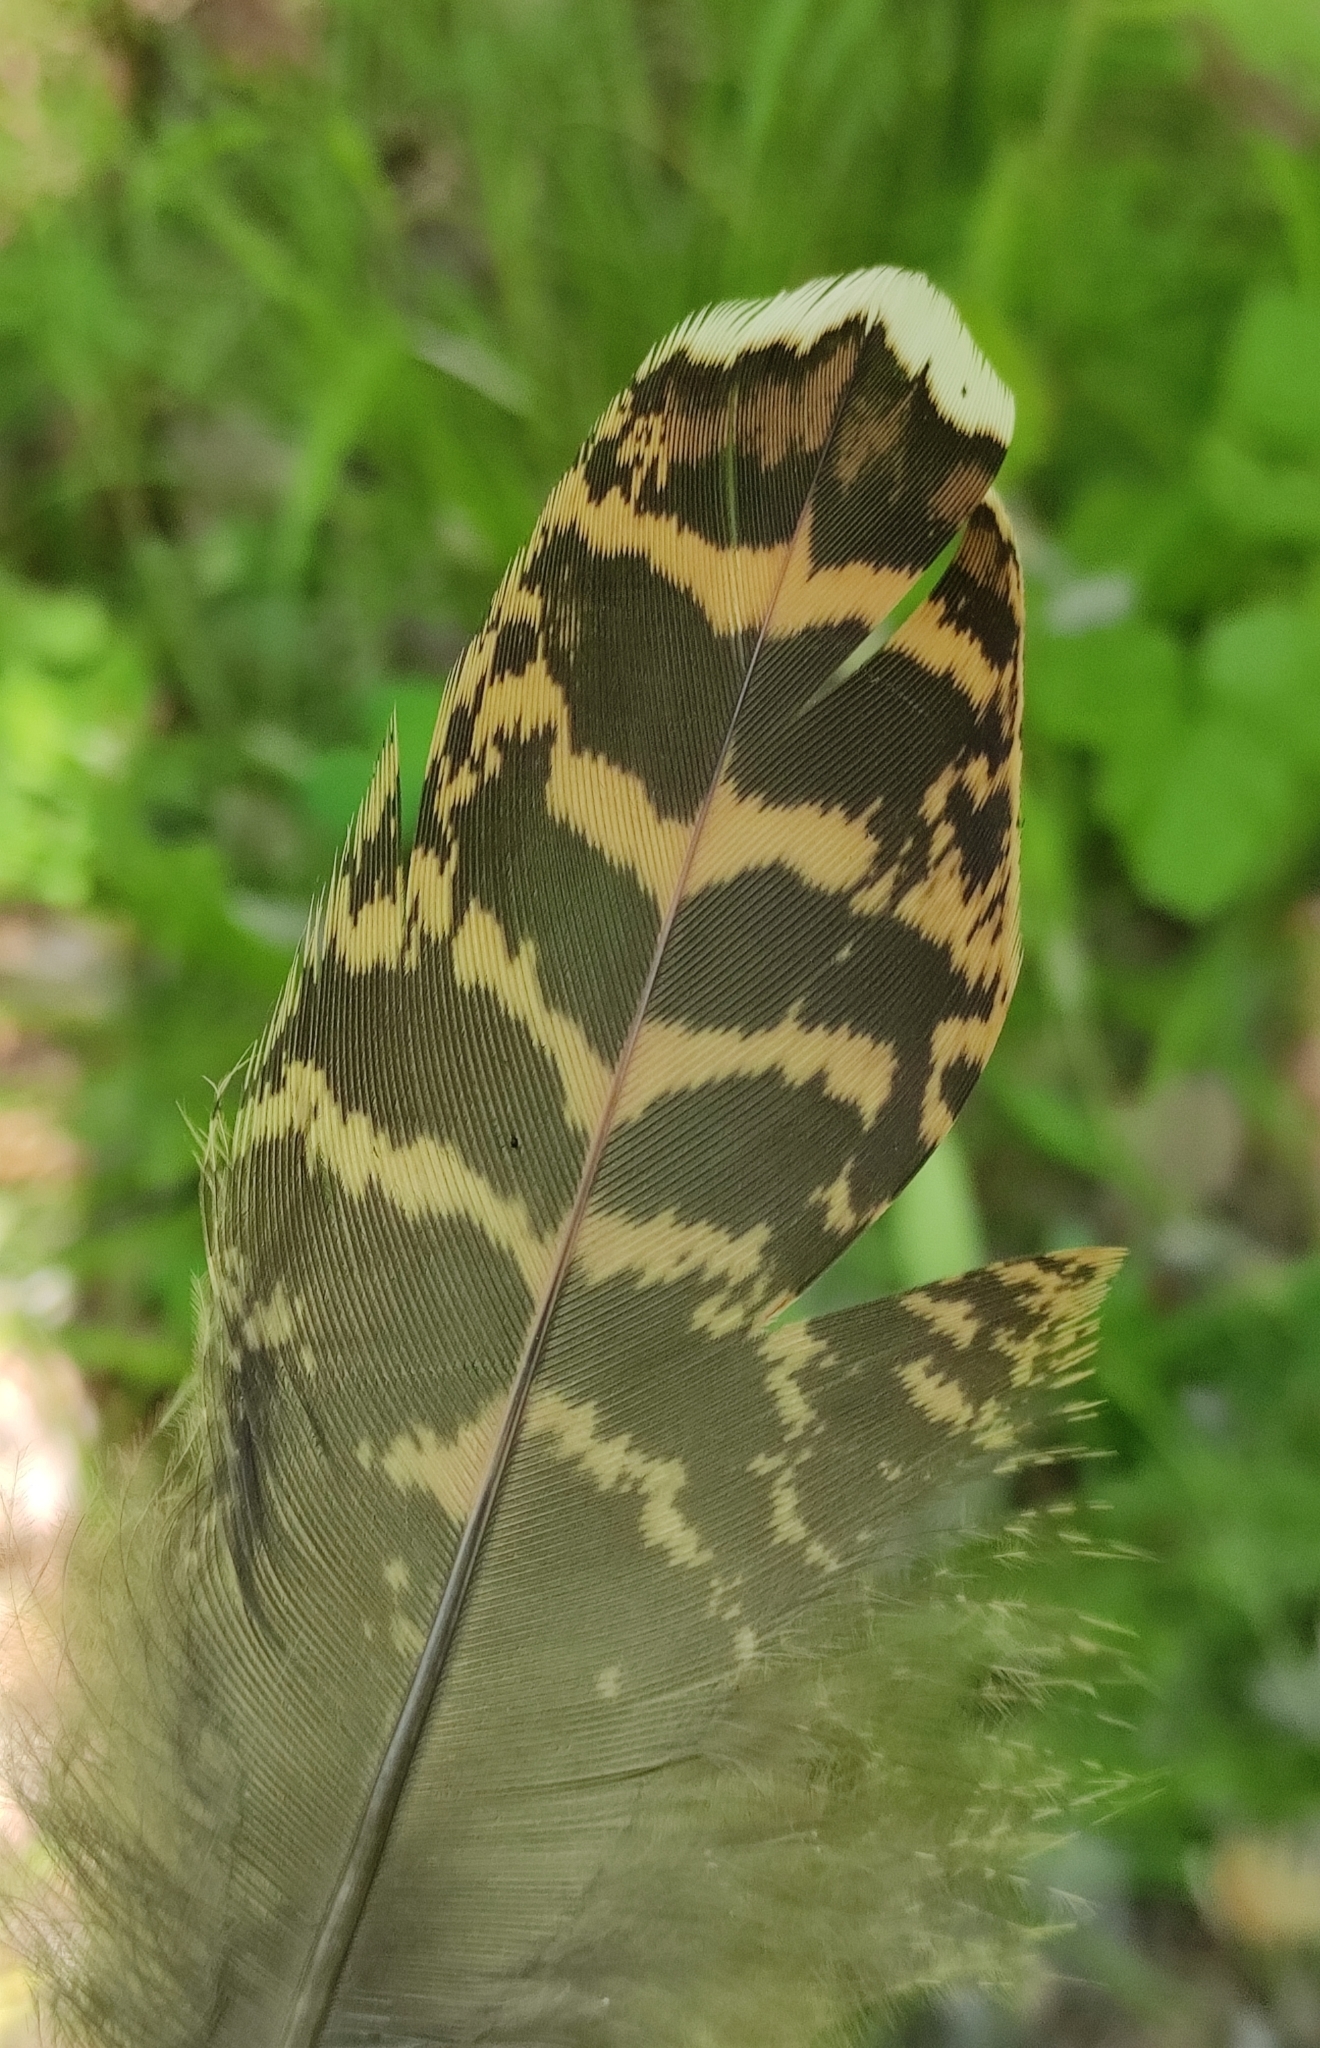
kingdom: Animalia
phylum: Chordata
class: Aves
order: Galliformes
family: Phasianidae
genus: Tetrao
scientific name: Tetrao urogallus
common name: Western capercaillie
